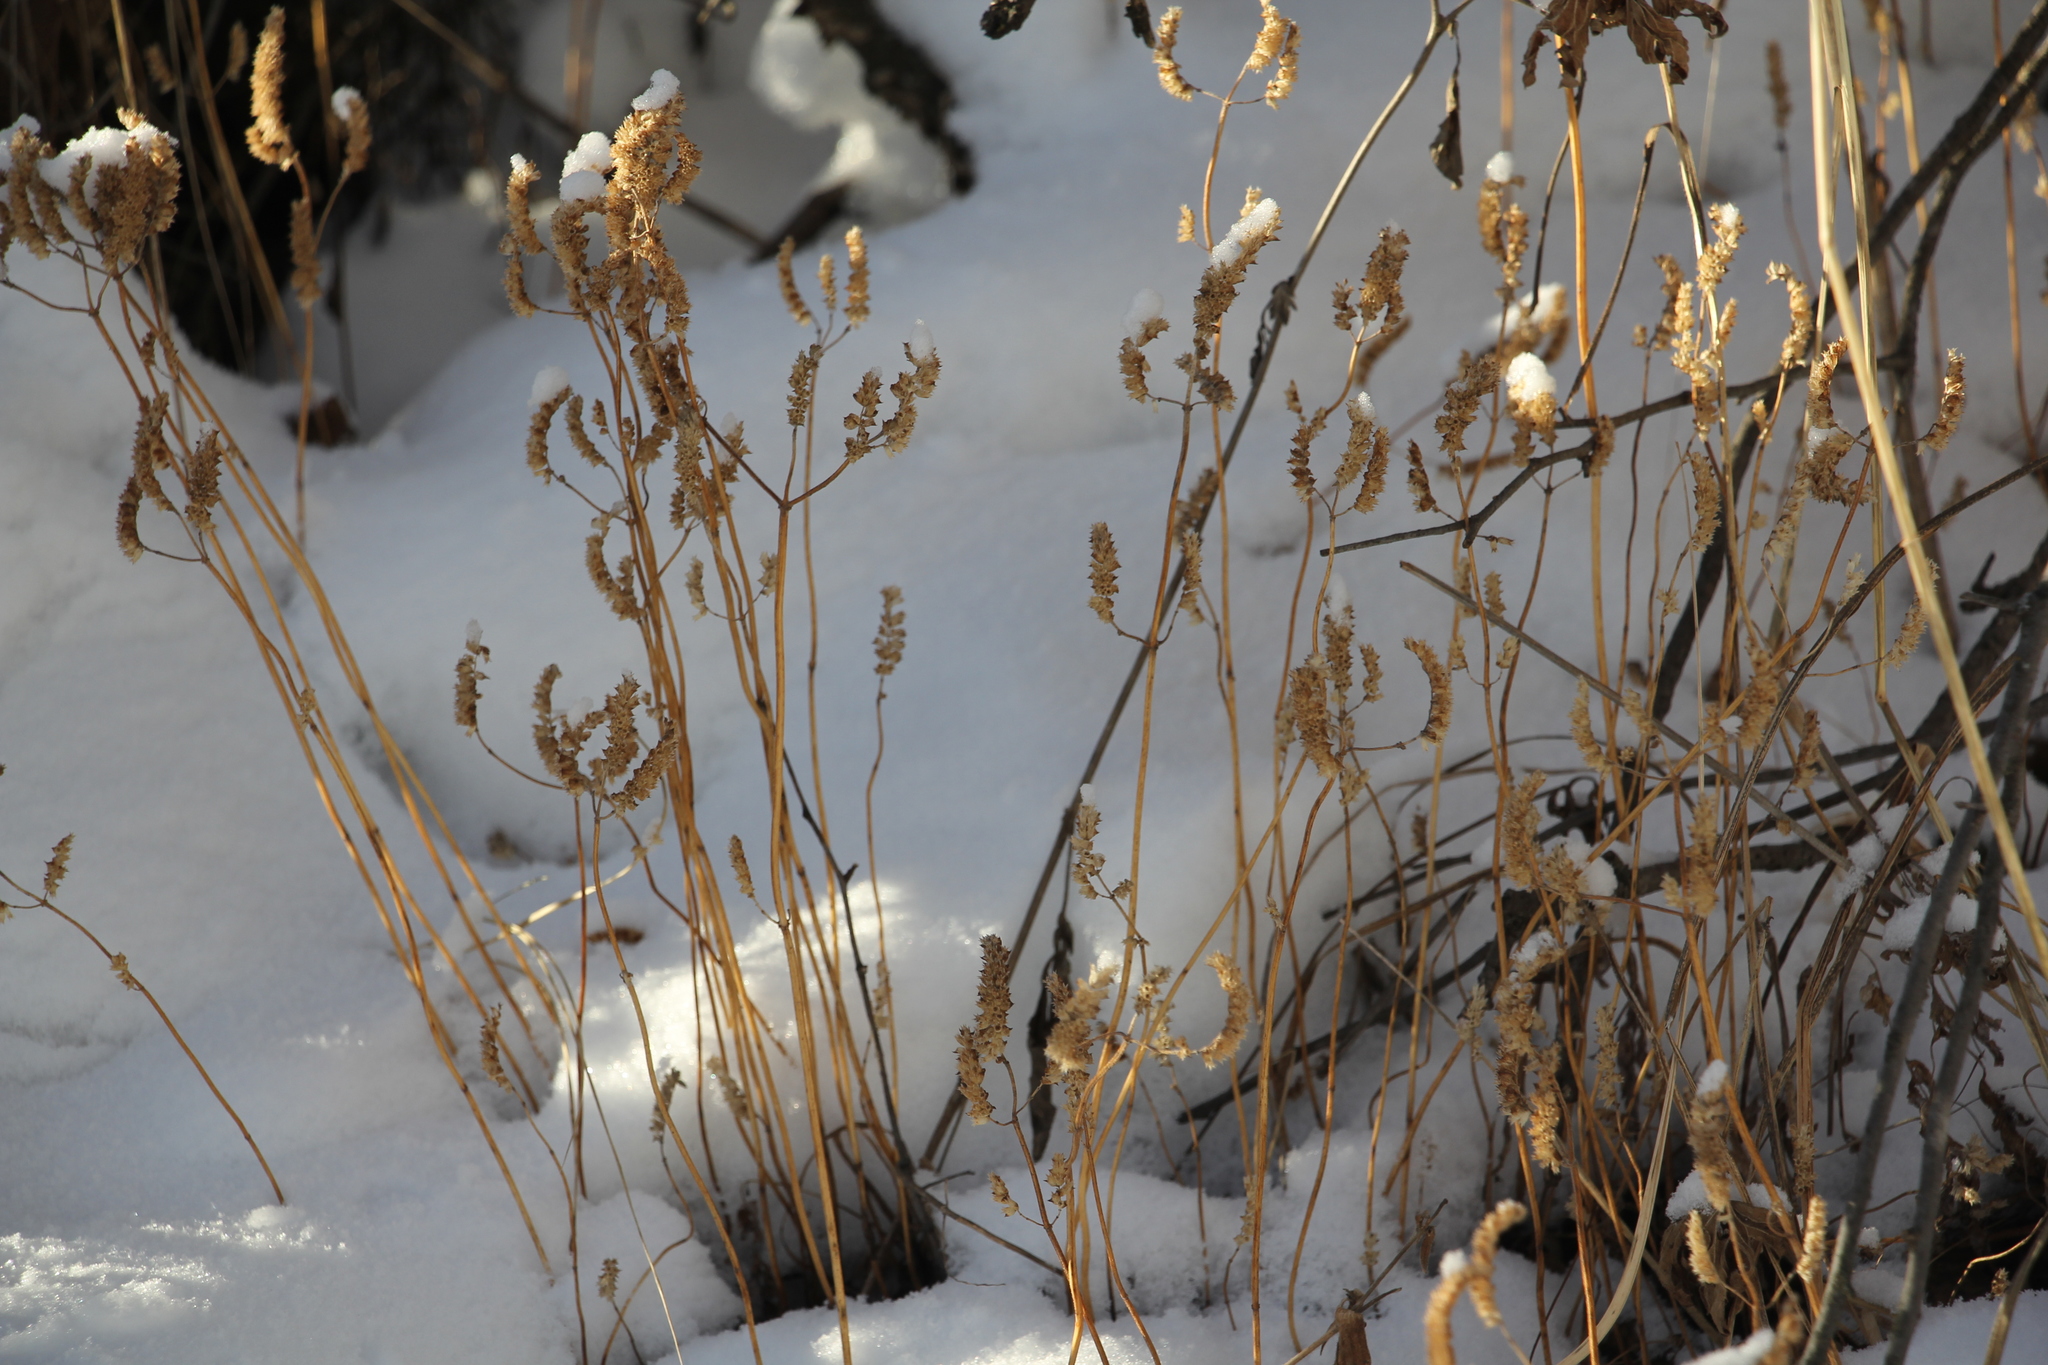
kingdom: Plantae
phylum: Tracheophyta
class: Magnoliopsida
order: Lamiales
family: Lamiaceae
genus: Elsholtzia
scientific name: Elsholtzia ciliata
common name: Ciliate elsholtzia
